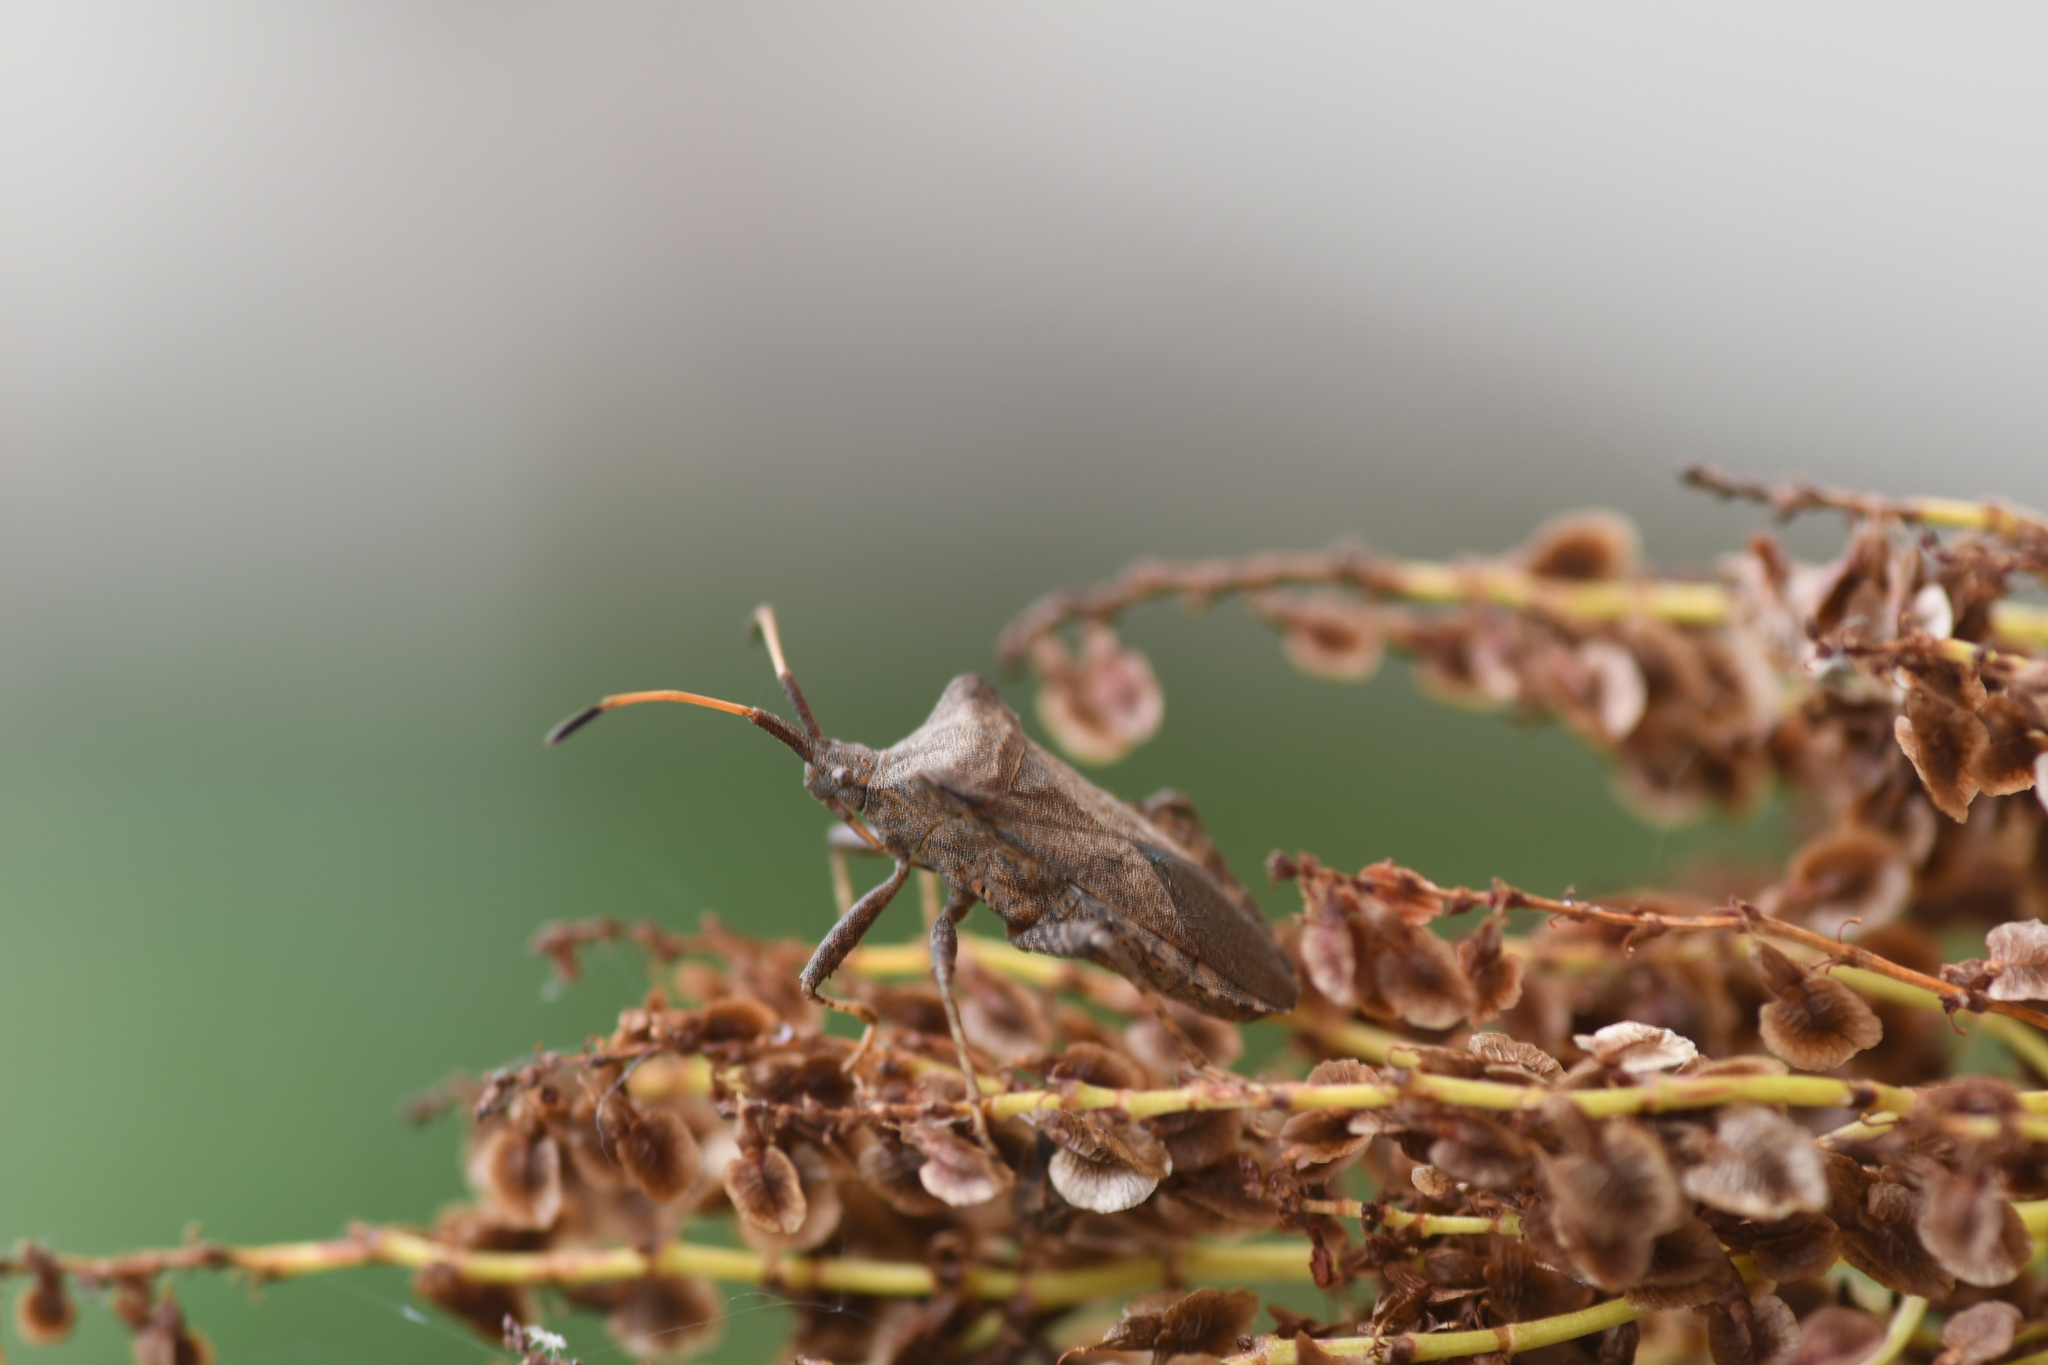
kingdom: Animalia
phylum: Arthropoda
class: Insecta
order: Hemiptera
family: Coreidae
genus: Coreus
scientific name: Coreus marginatus
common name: Dock bug
